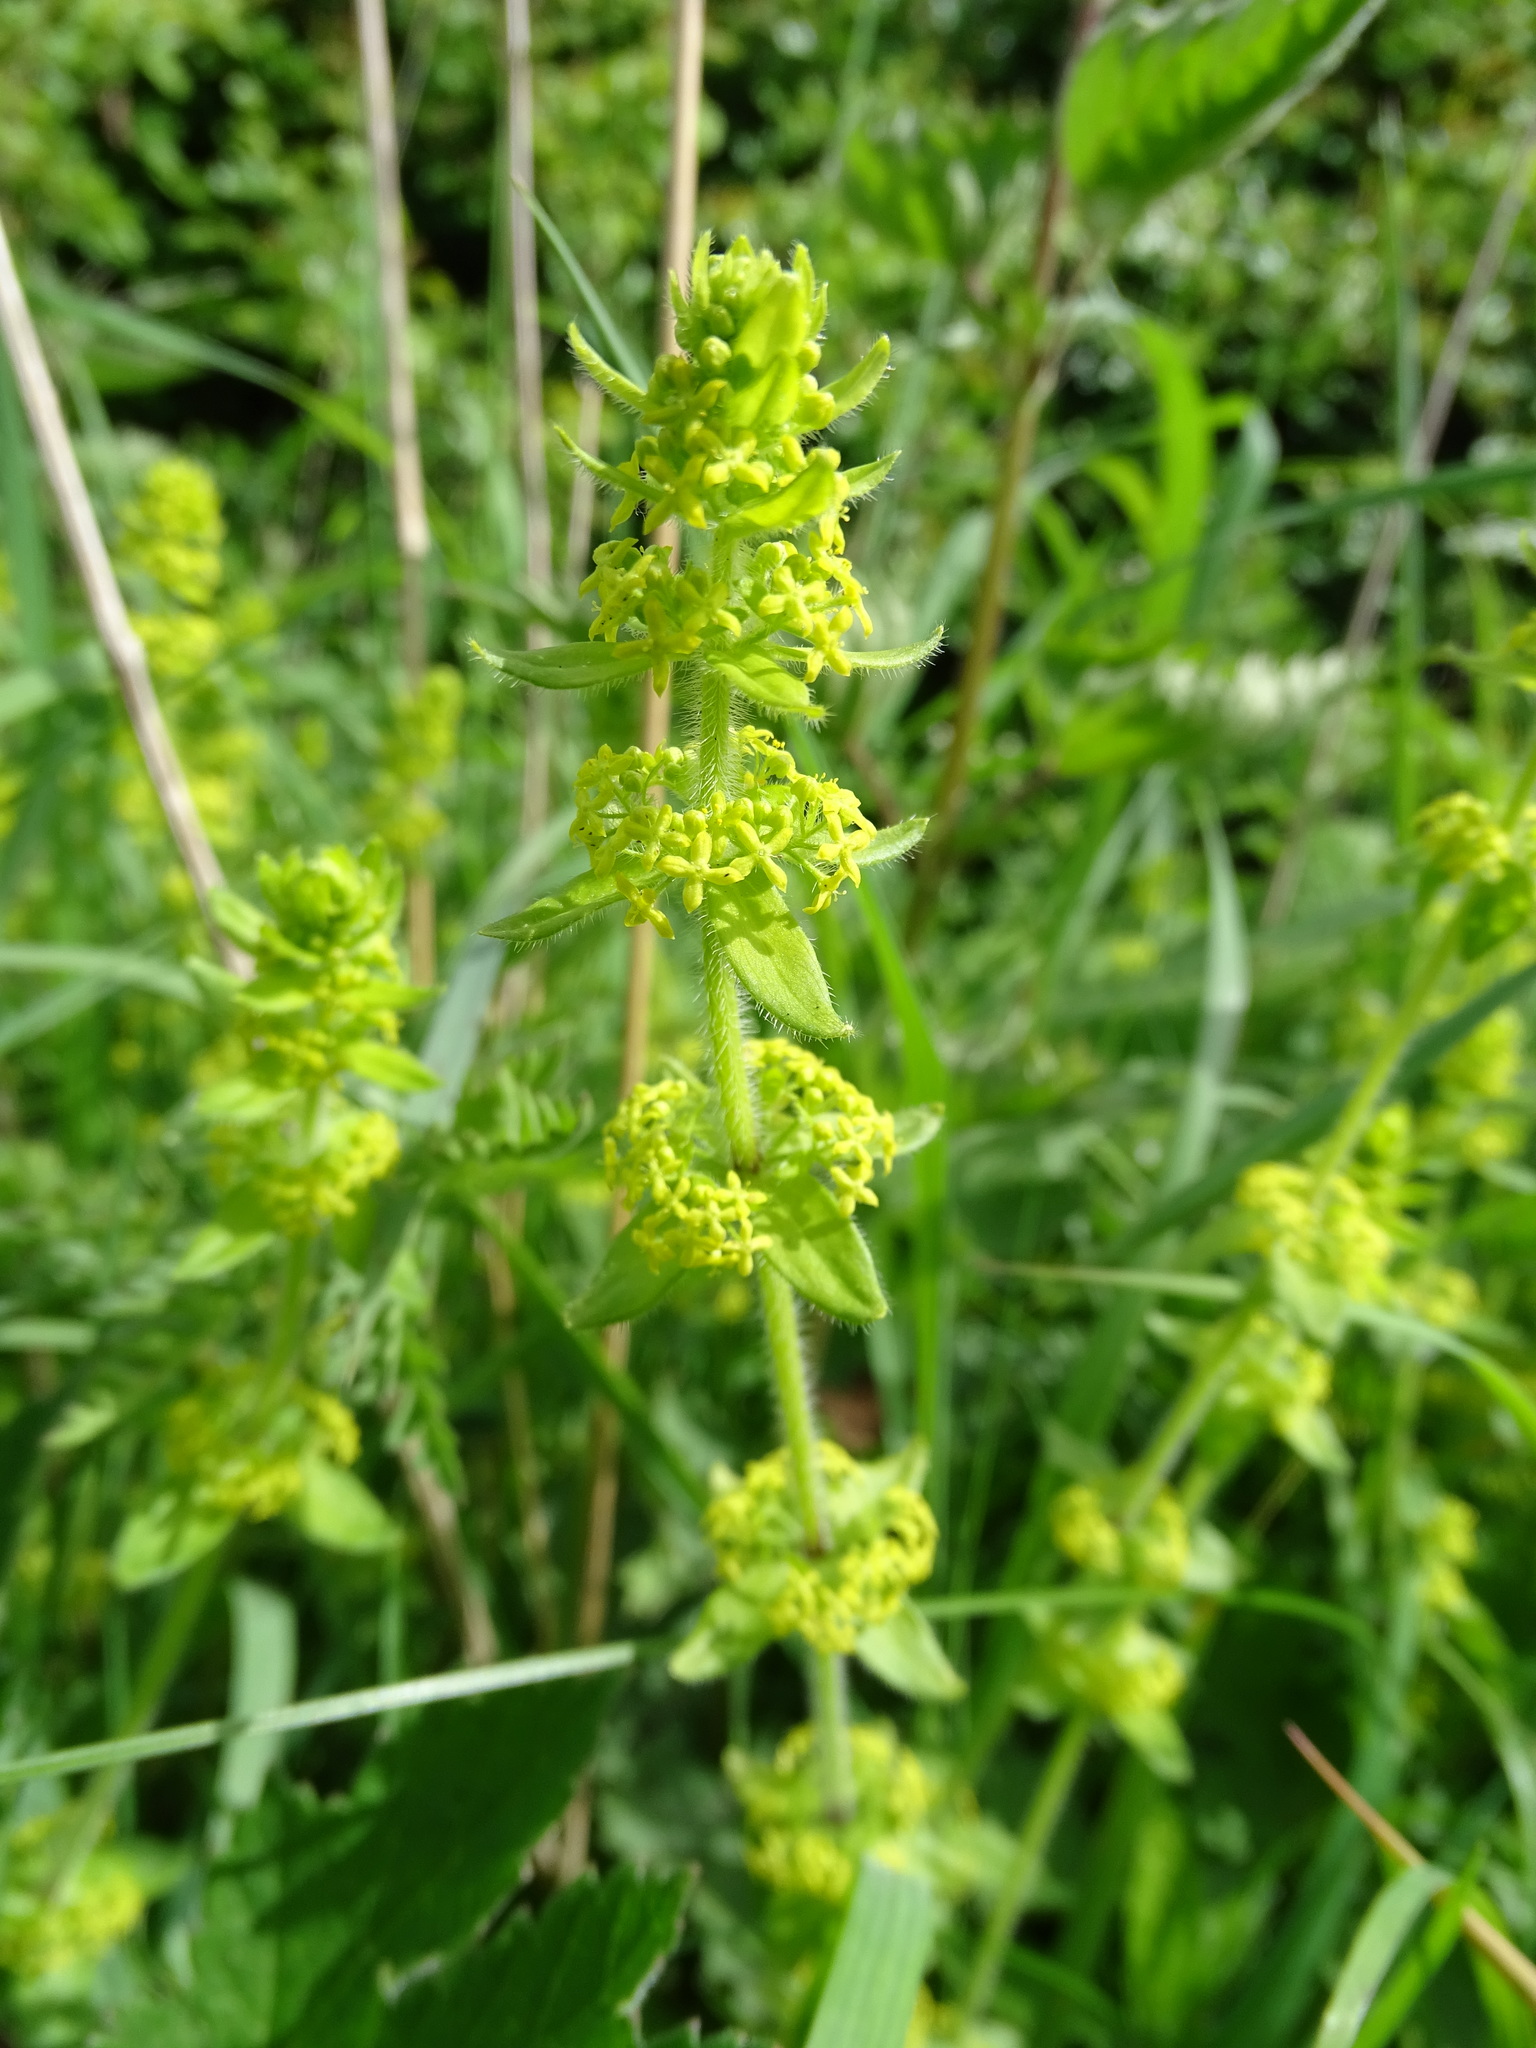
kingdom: Plantae
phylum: Tracheophyta
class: Magnoliopsida
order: Gentianales
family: Rubiaceae
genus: Cruciata
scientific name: Cruciata laevipes
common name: Crosswort
